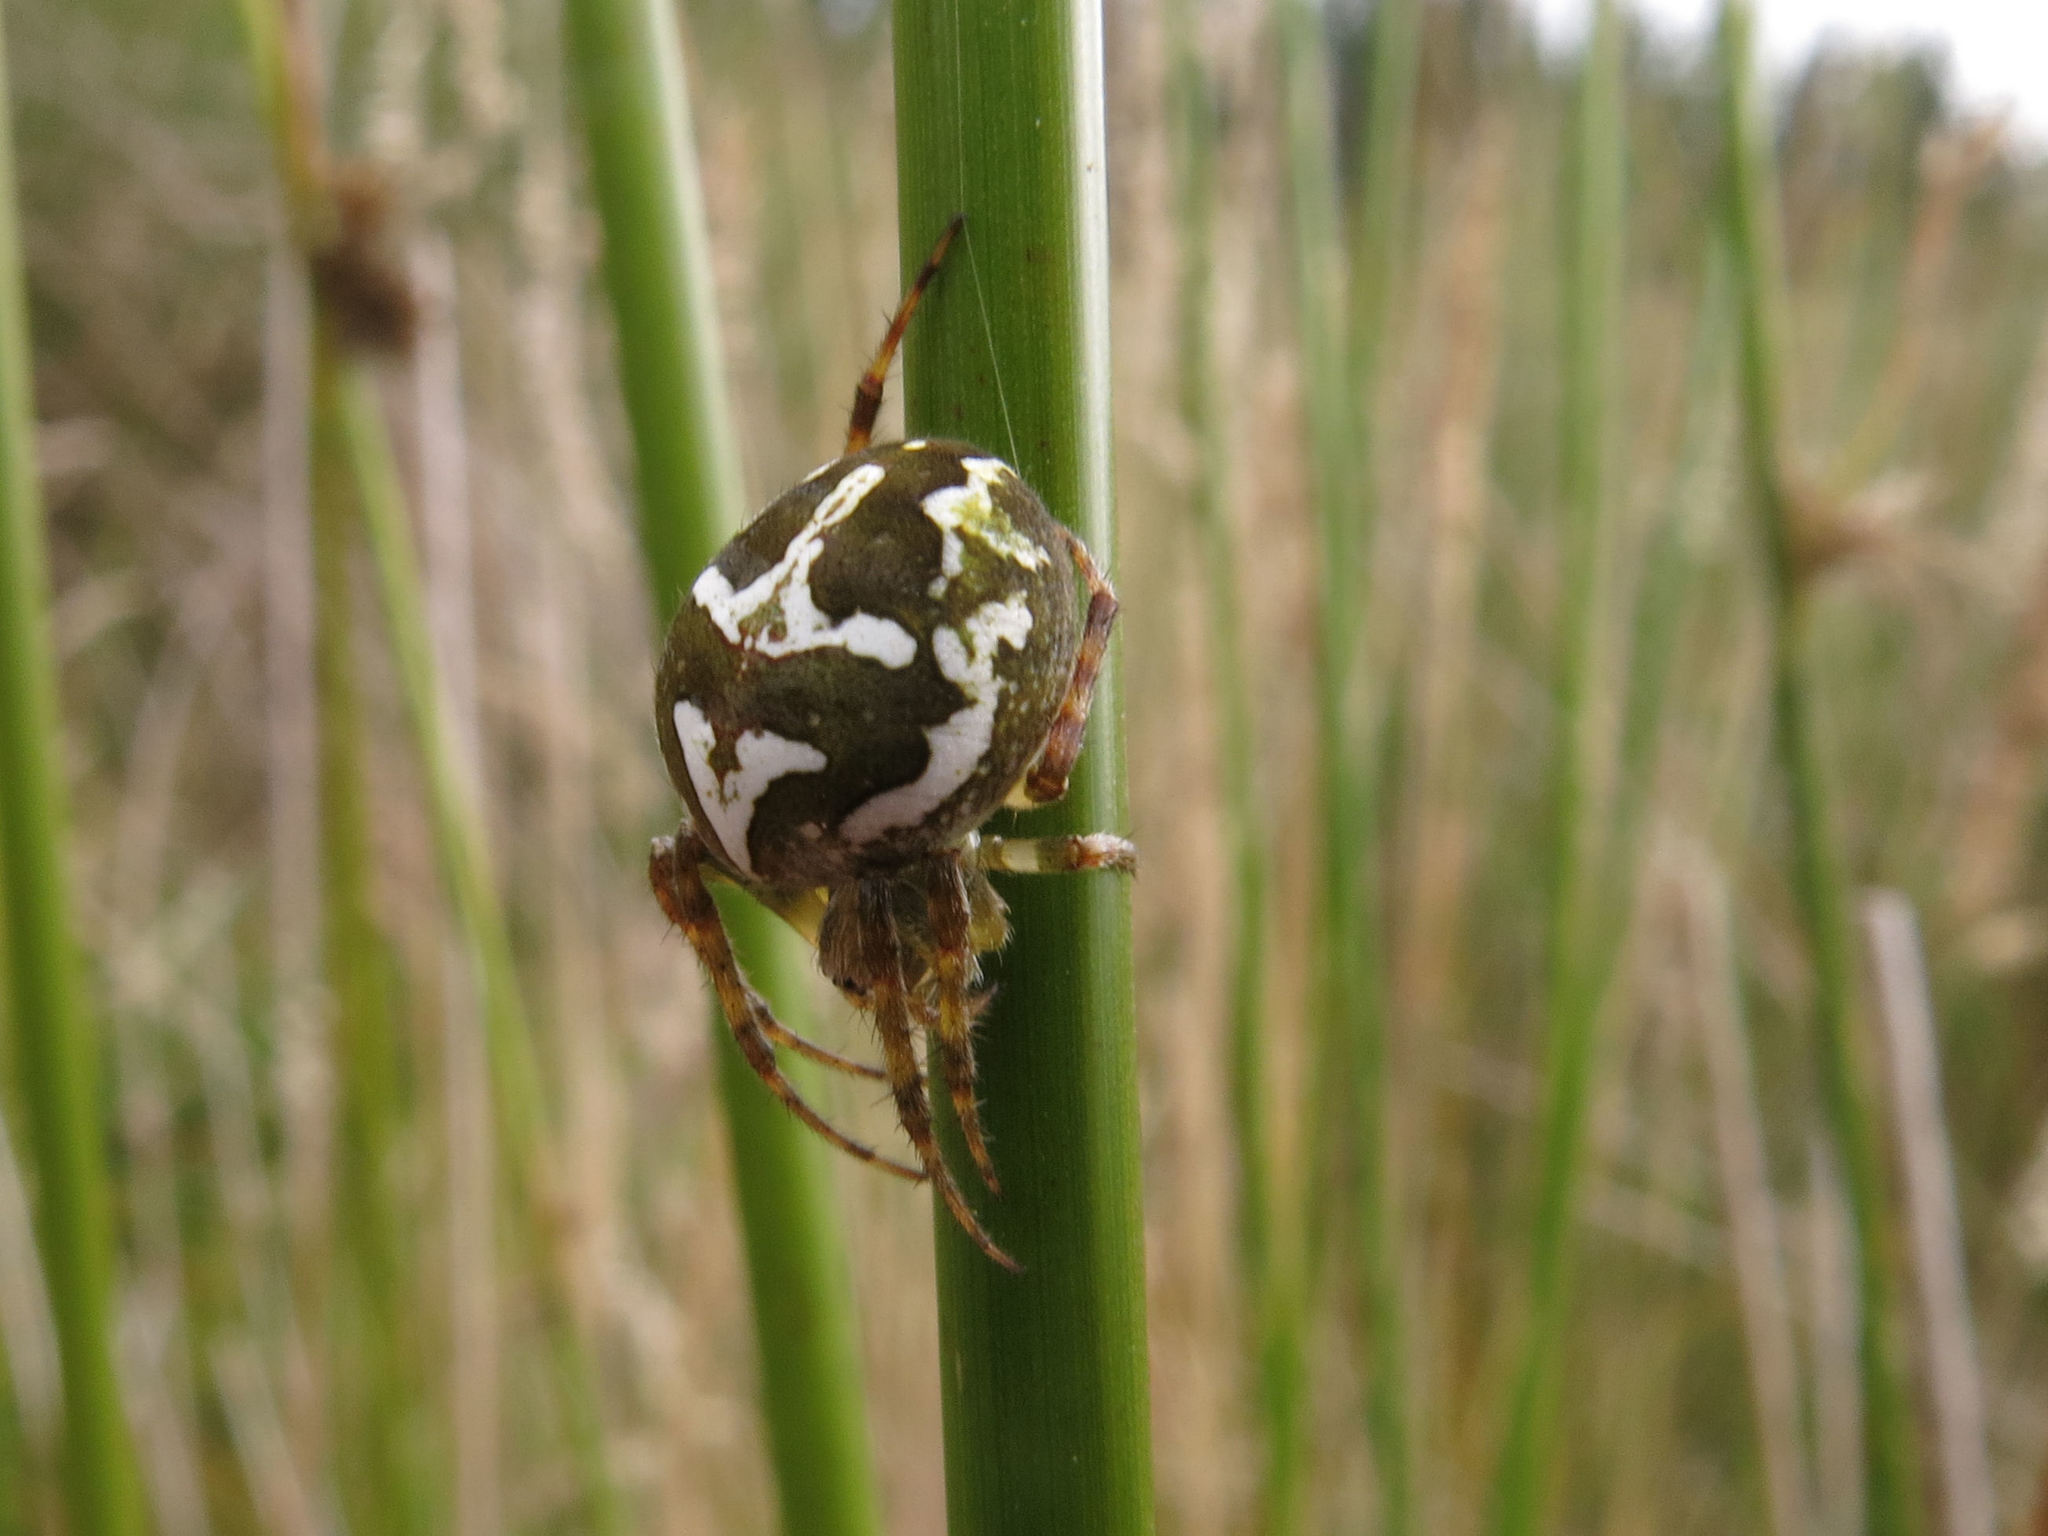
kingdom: Animalia
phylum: Arthropoda
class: Arachnida
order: Araneae
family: Araneidae
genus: Colaranea
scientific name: Colaranea verutum
